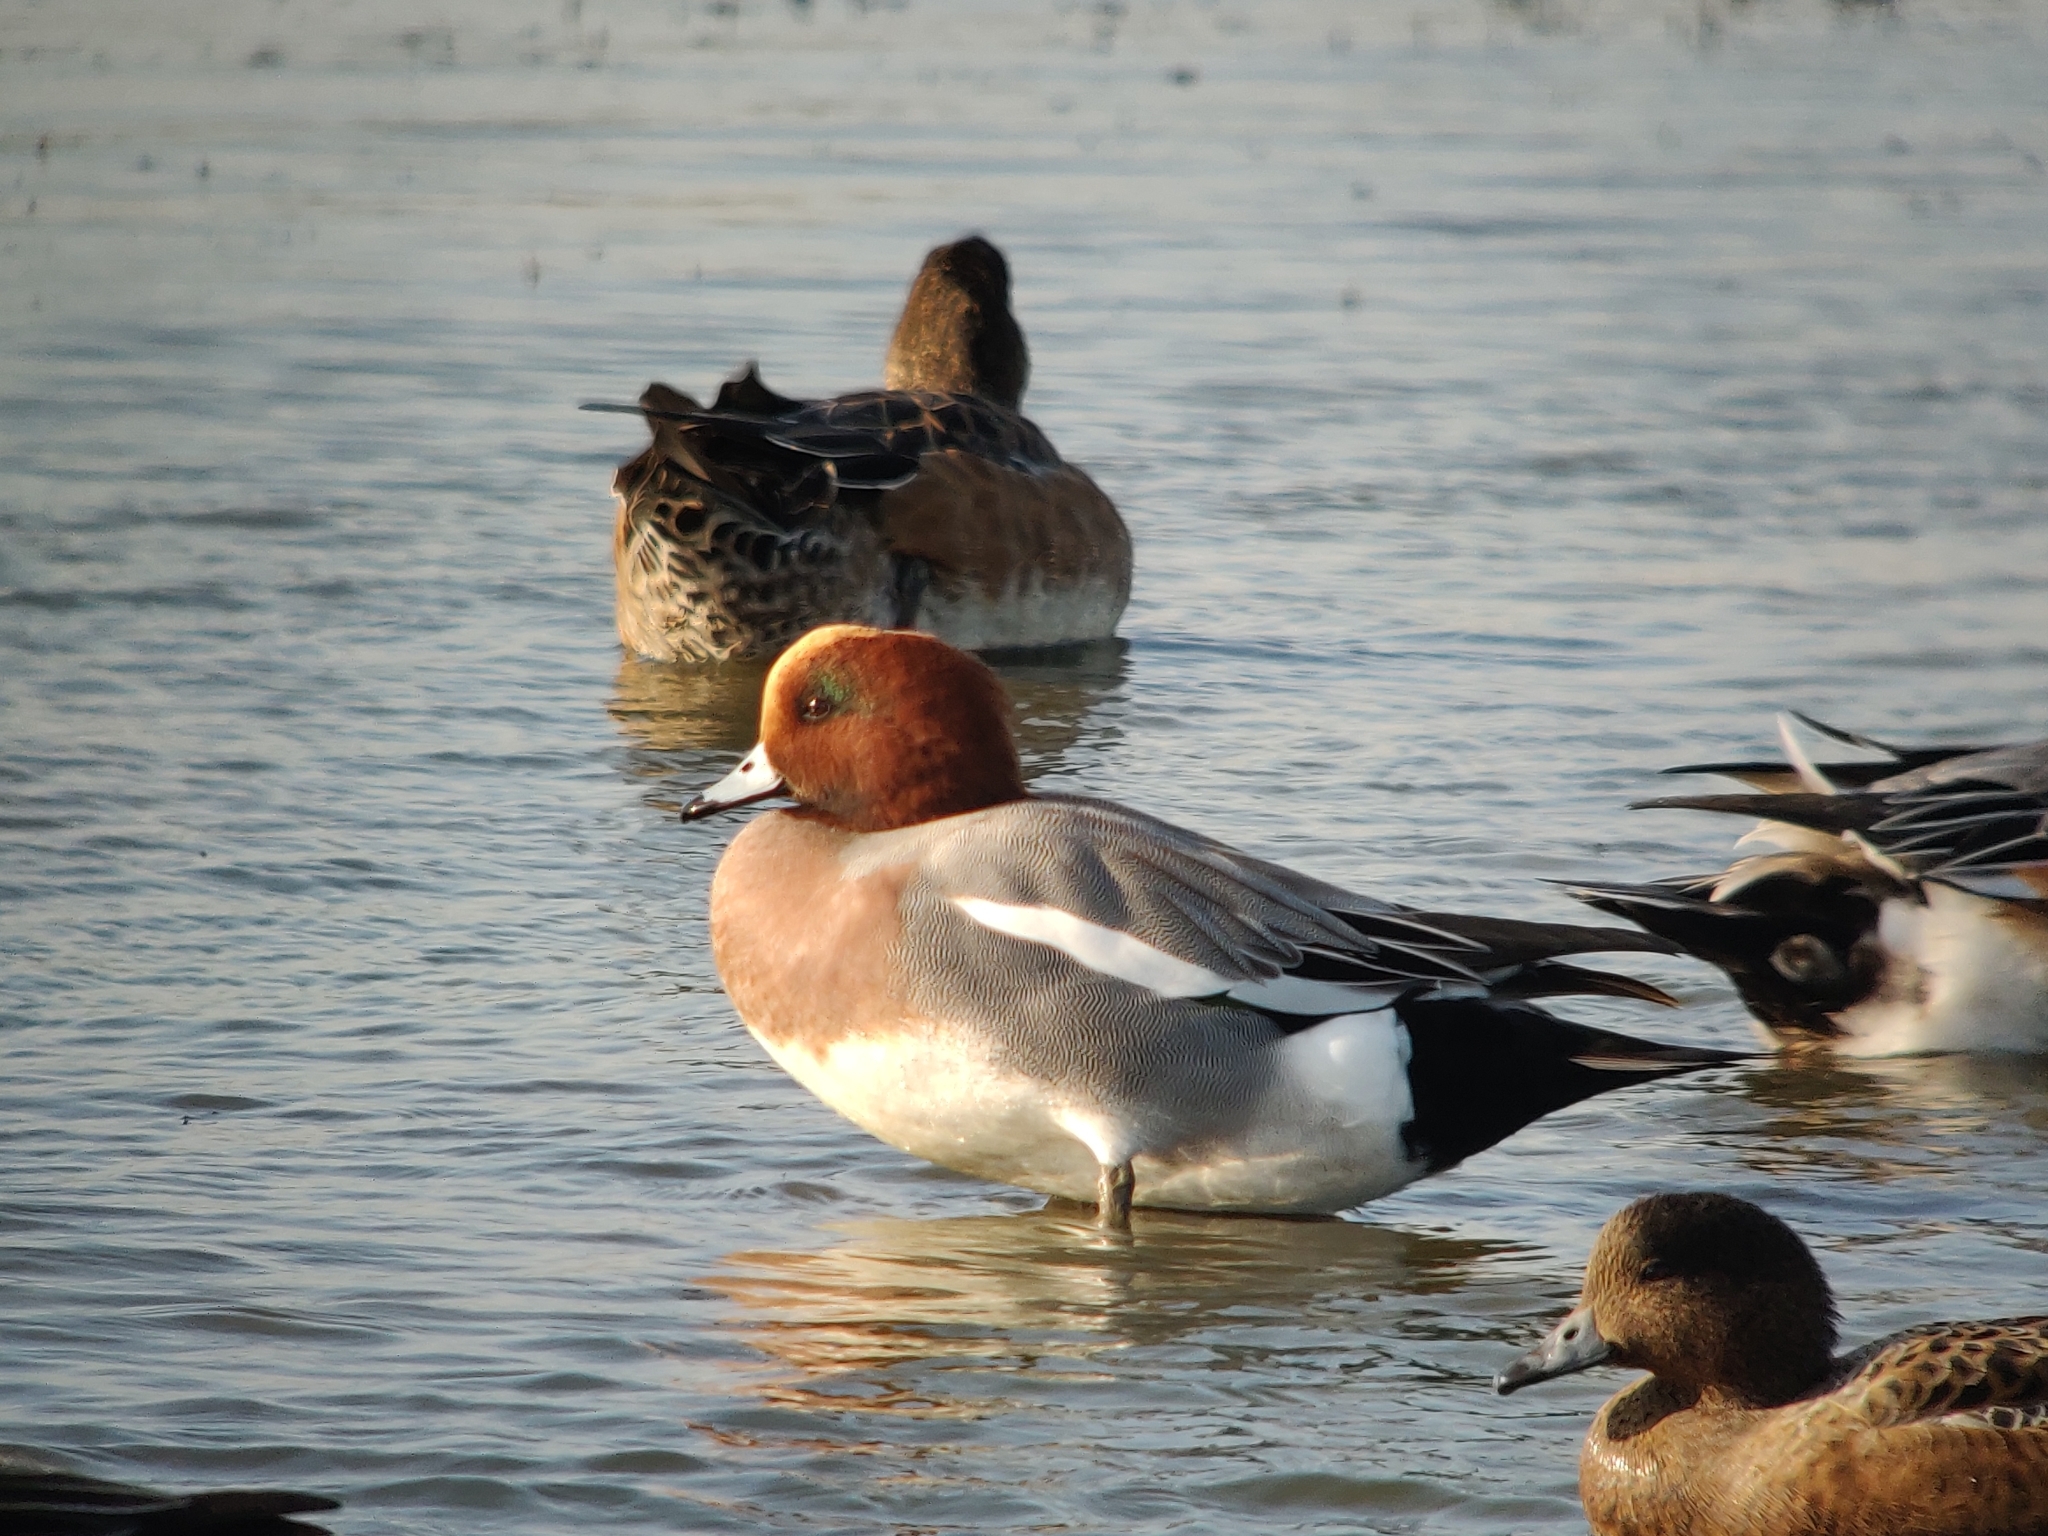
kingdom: Animalia
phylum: Chordata
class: Aves
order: Anseriformes
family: Anatidae
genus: Mareca
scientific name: Mareca penelope
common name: Eurasian wigeon
